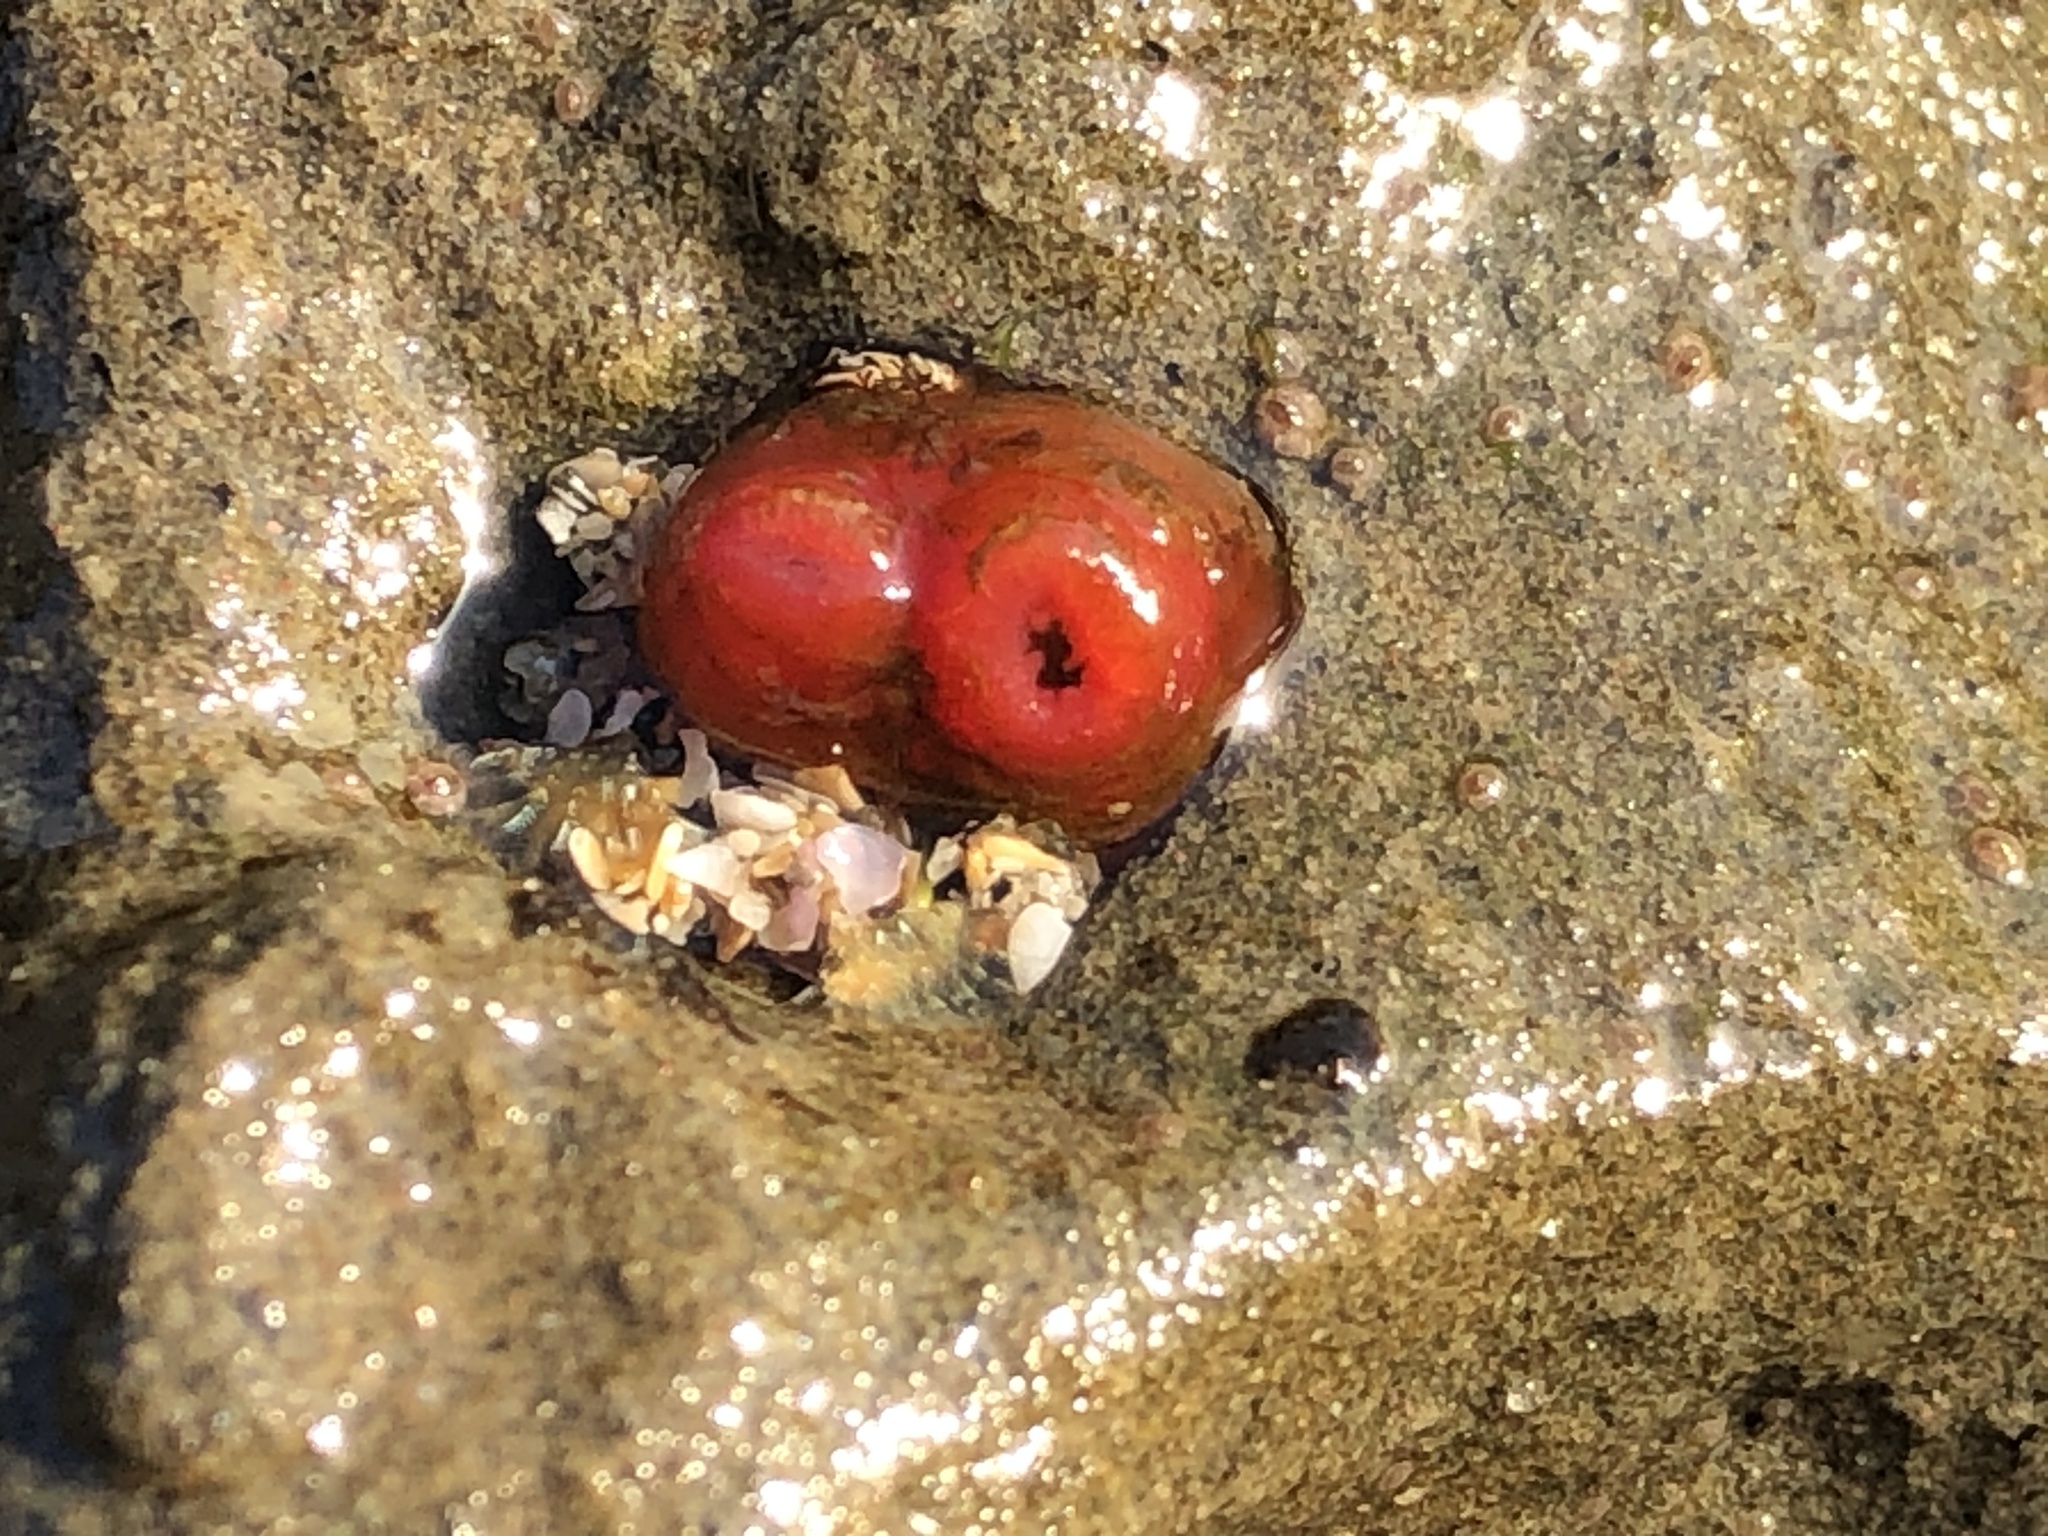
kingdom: Animalia
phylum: Mollusca
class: Bivalvia
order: Adapedonta
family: Hiatellidae
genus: Hiatella
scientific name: Hiatella arctica
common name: Arctic hiatella
